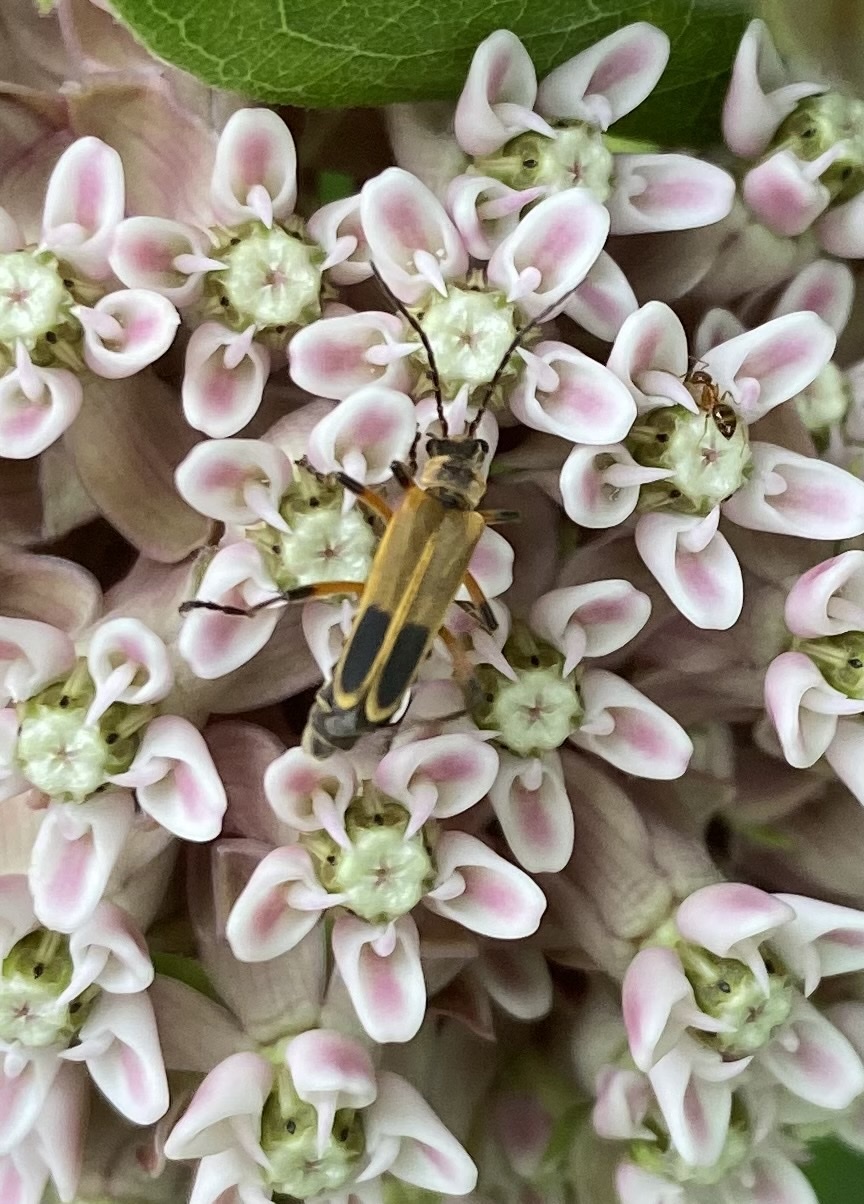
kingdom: Animalia
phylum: Arthropoda
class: Insecta
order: Coleoptera
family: Cantharidae
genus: Chauliognathus
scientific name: Chauliognathus marginatus
